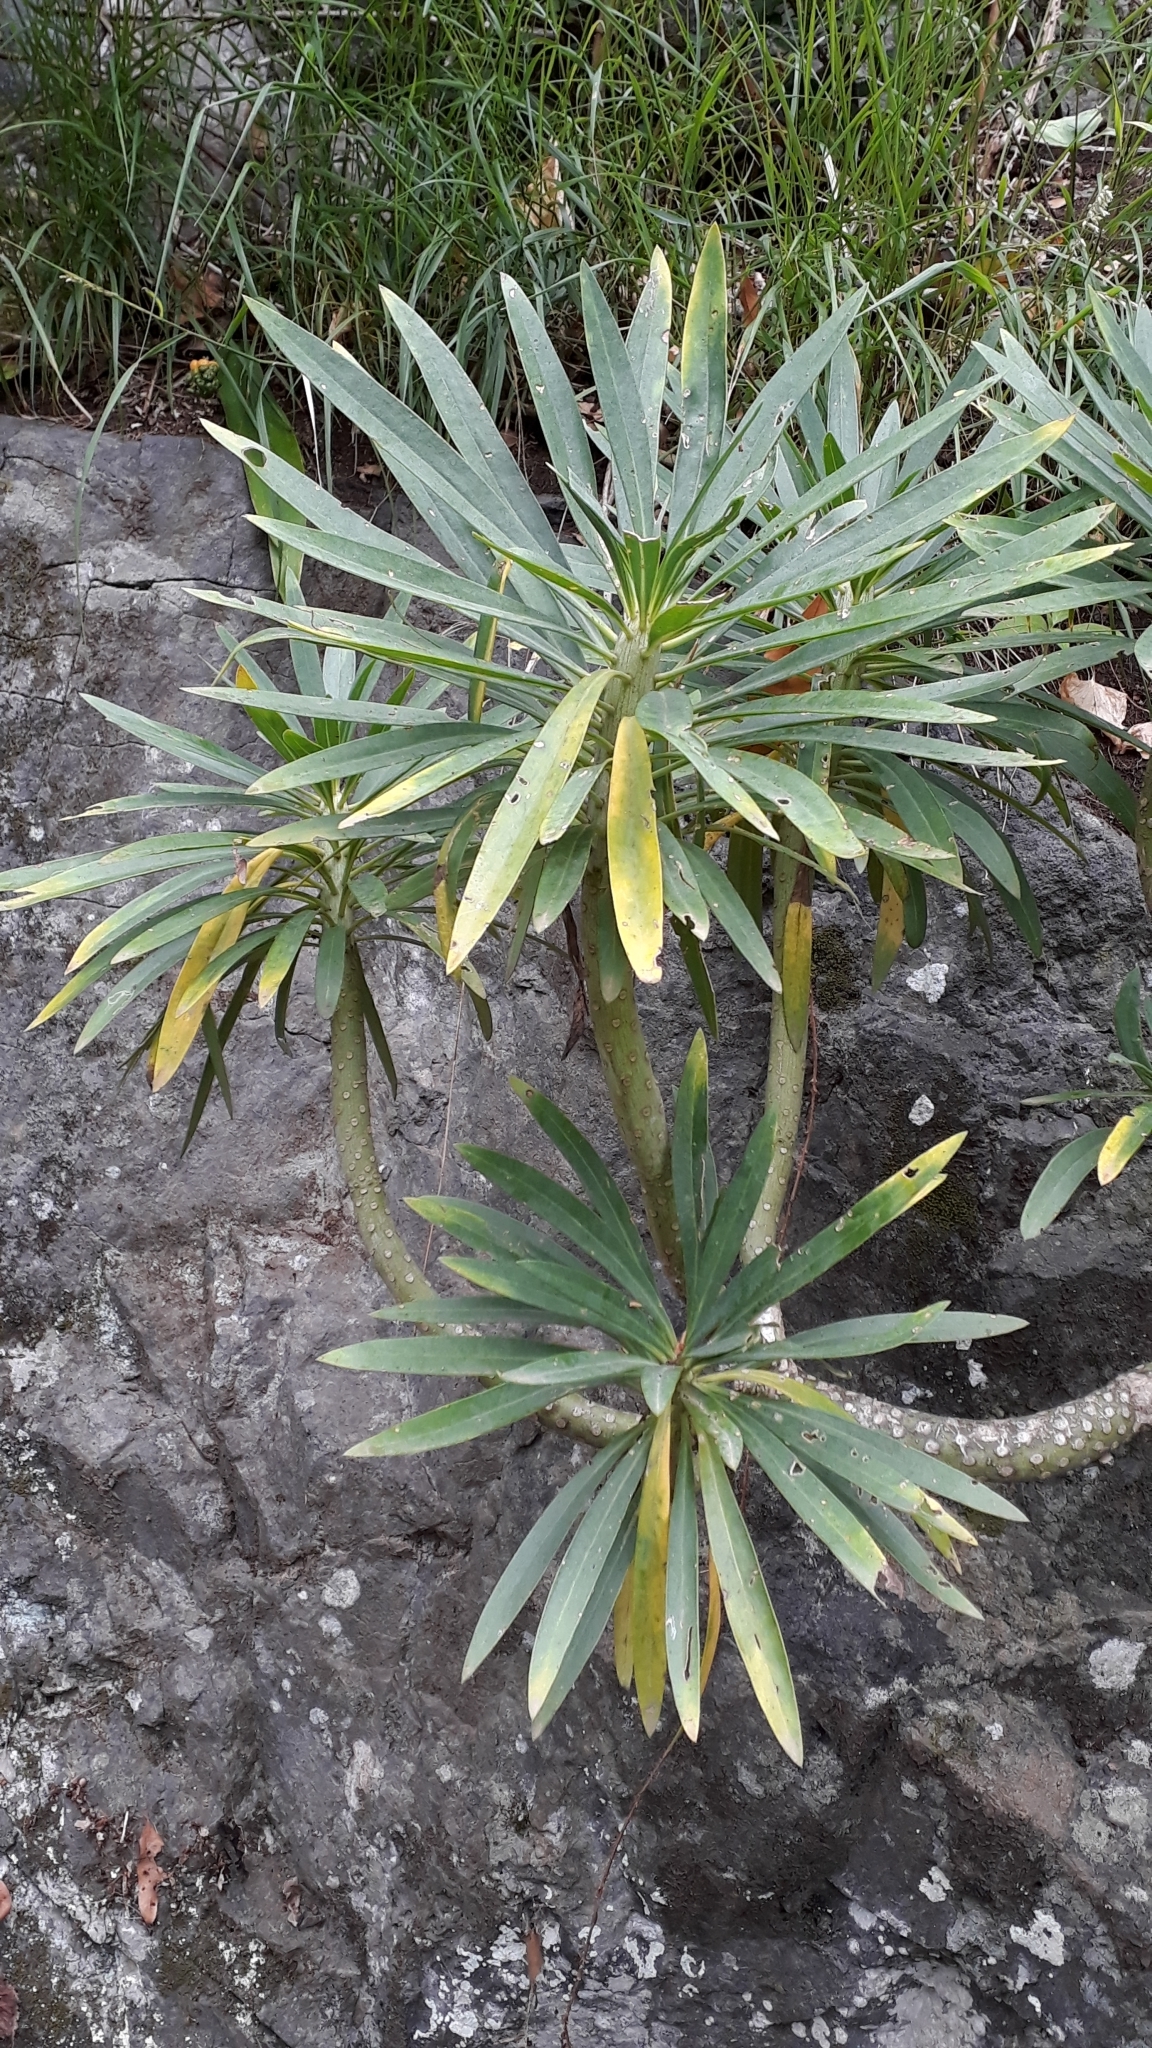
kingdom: Plantae
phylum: Tracheophyta
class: Magnoliopsida
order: Asterales
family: Asteraceae
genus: Kleinia
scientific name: Kleinia neriifolia
